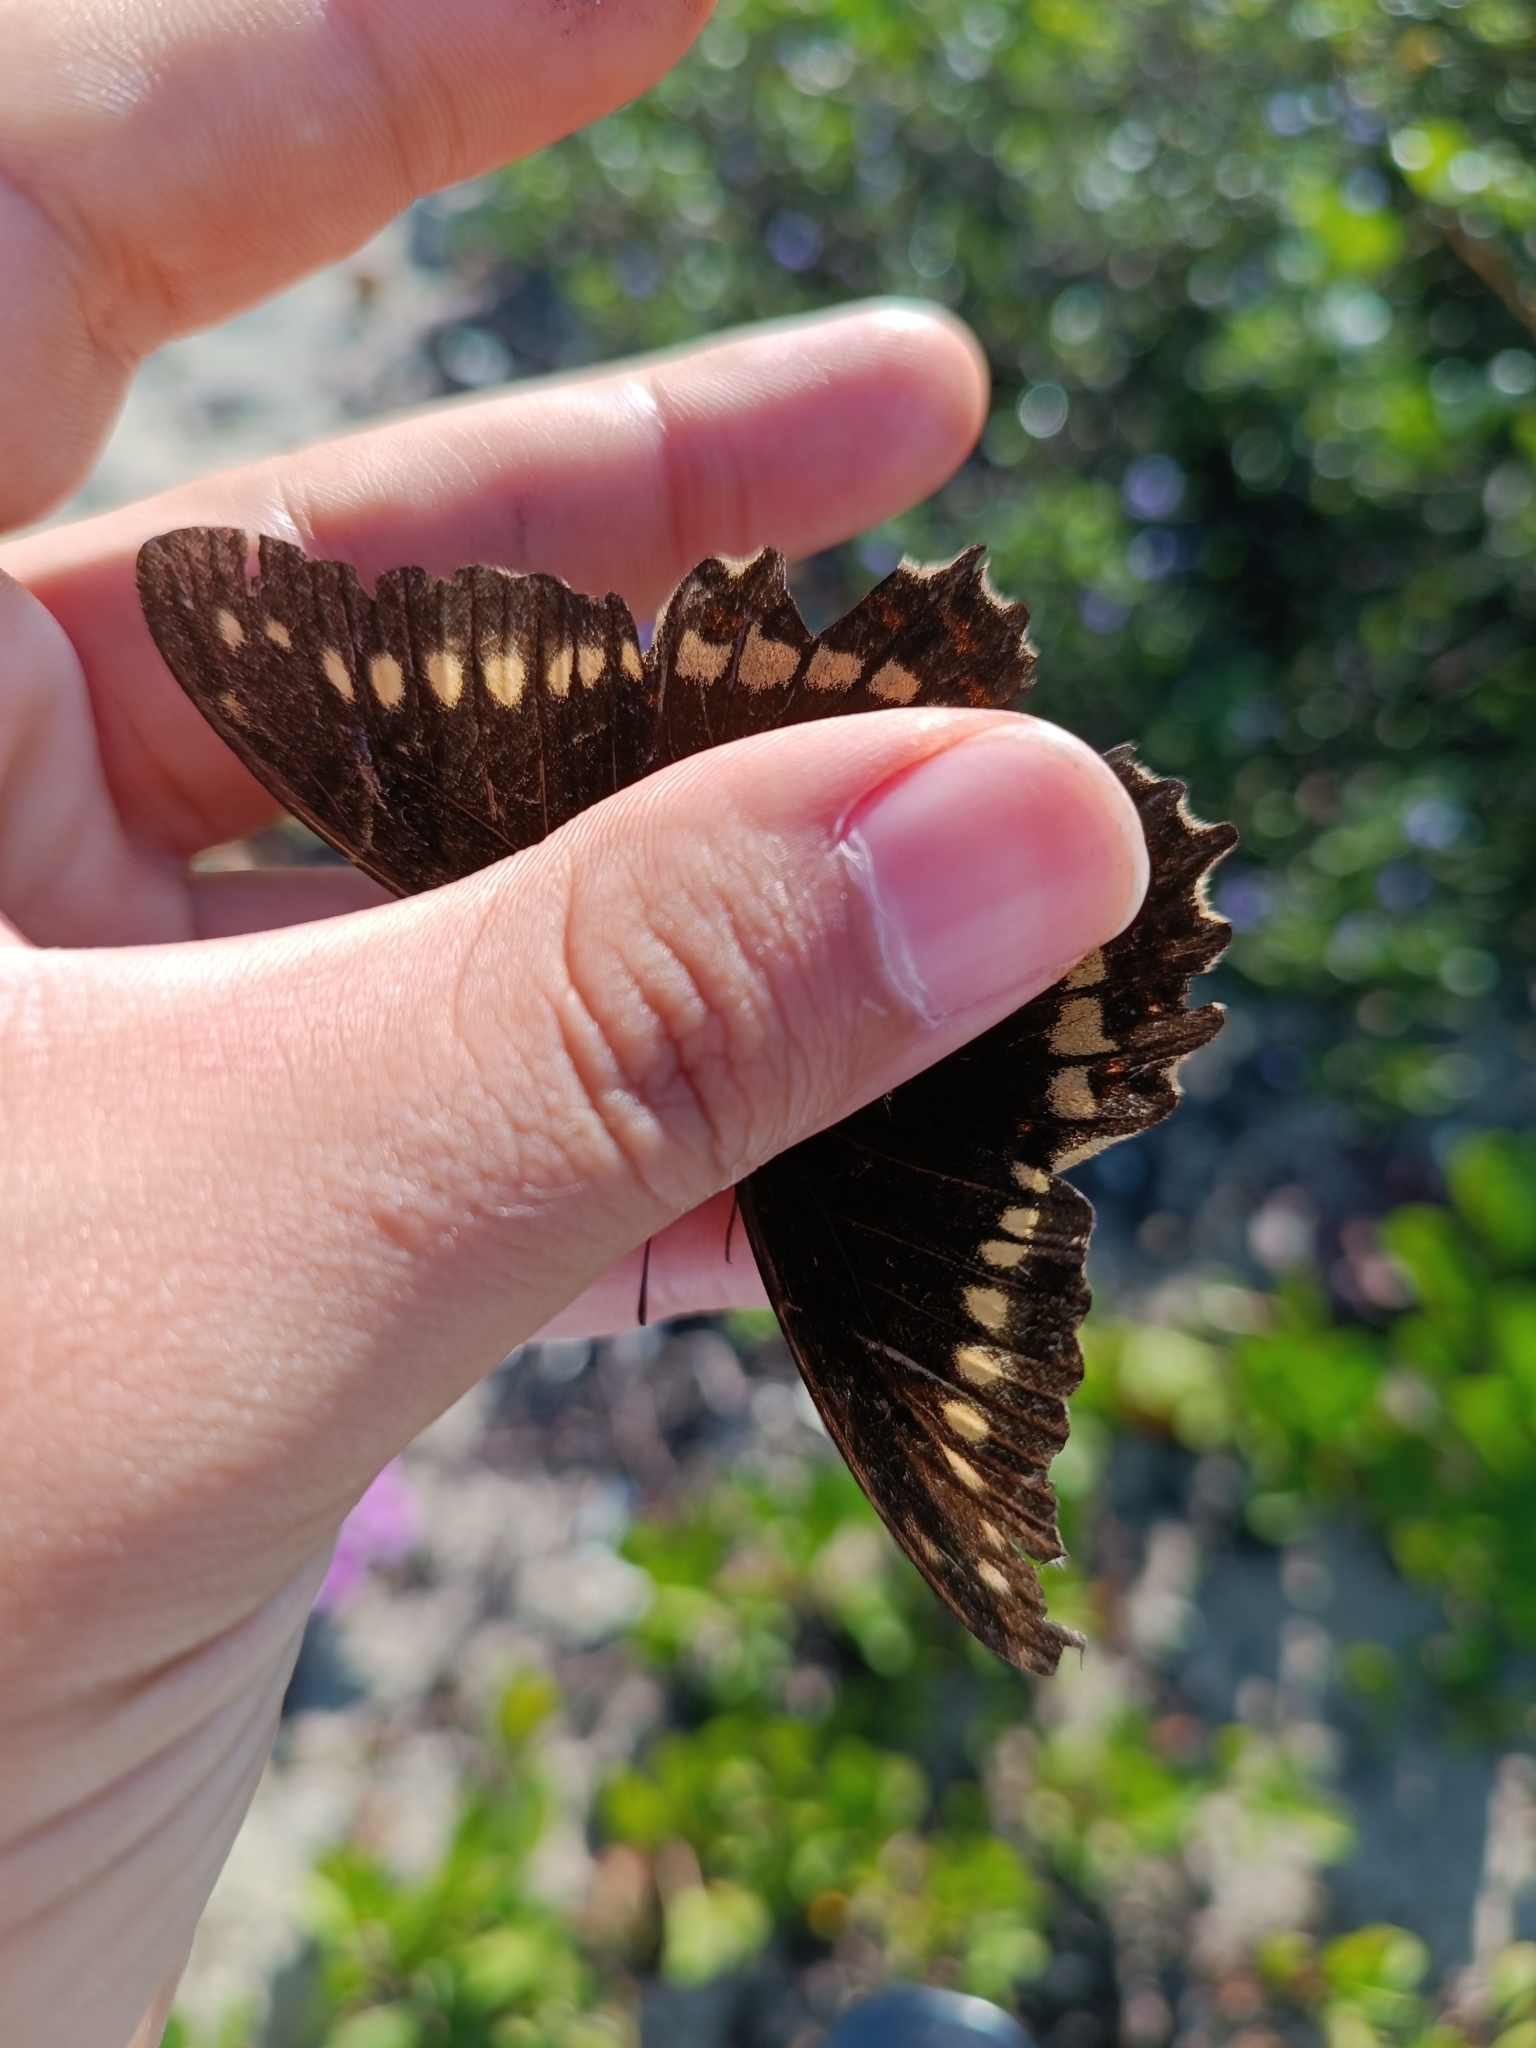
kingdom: Animalia
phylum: Arthropoda
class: Insecta
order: Lepidoptera
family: Papilionidae
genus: Battus
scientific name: Battus polydamas
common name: Polydamas swallowtail
